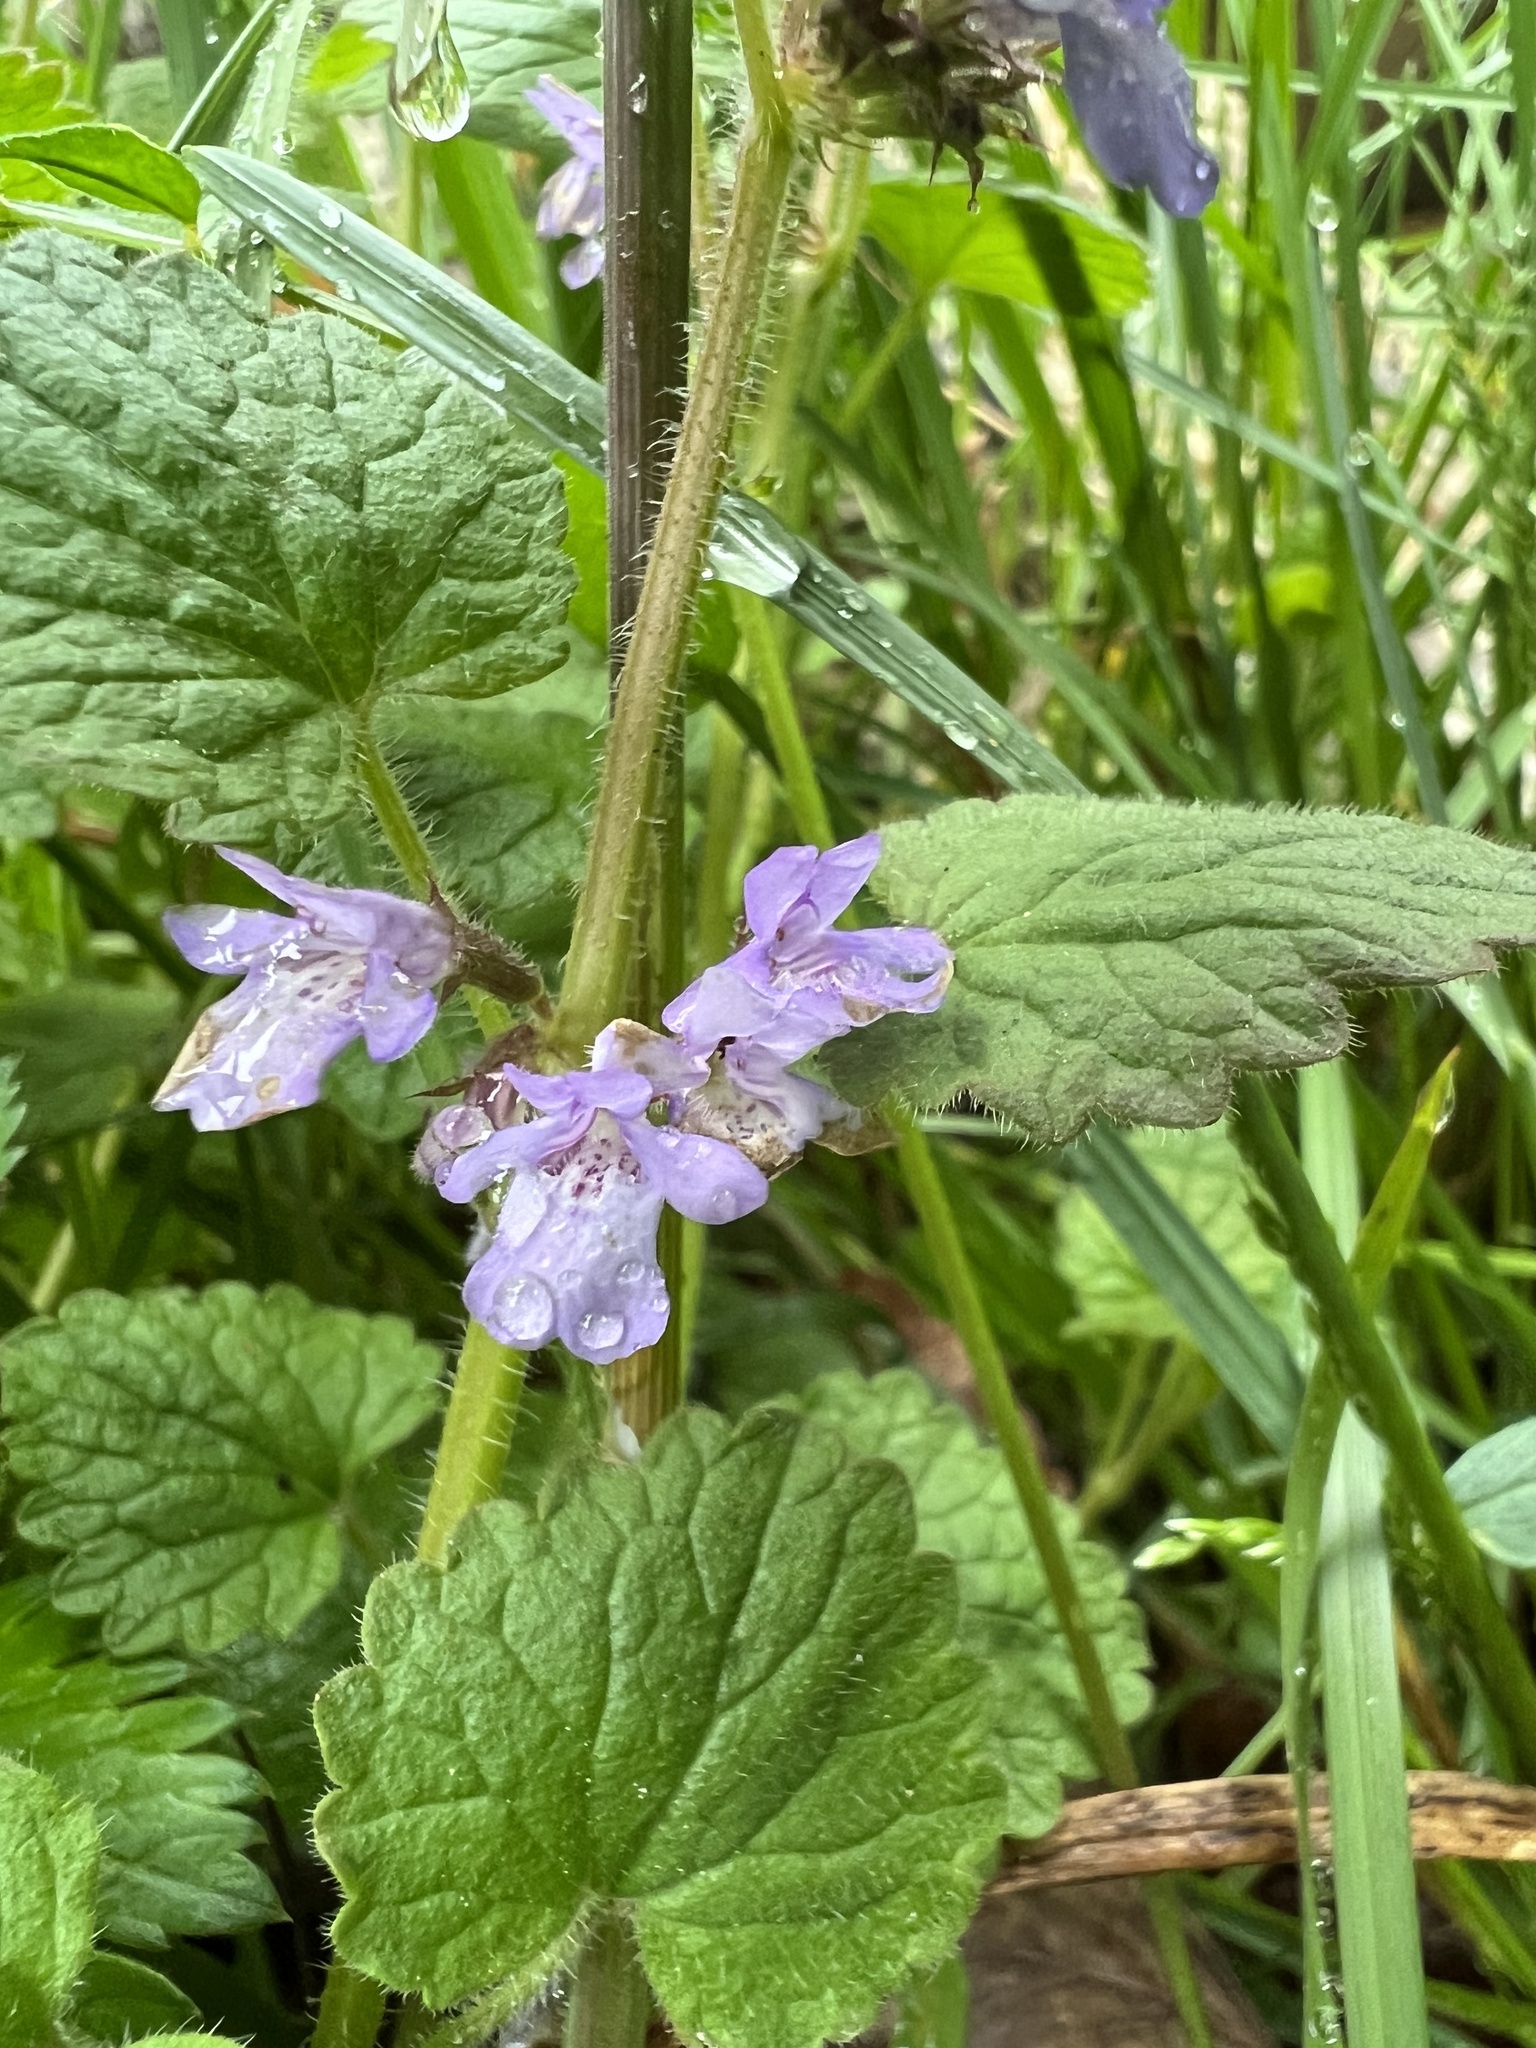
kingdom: Plantae
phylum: Tracheophyta
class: Magnoliopsida
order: Lamiales
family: Lamiaceae
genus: Glechoma
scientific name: Glechoma hederacea
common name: Ground ivy
